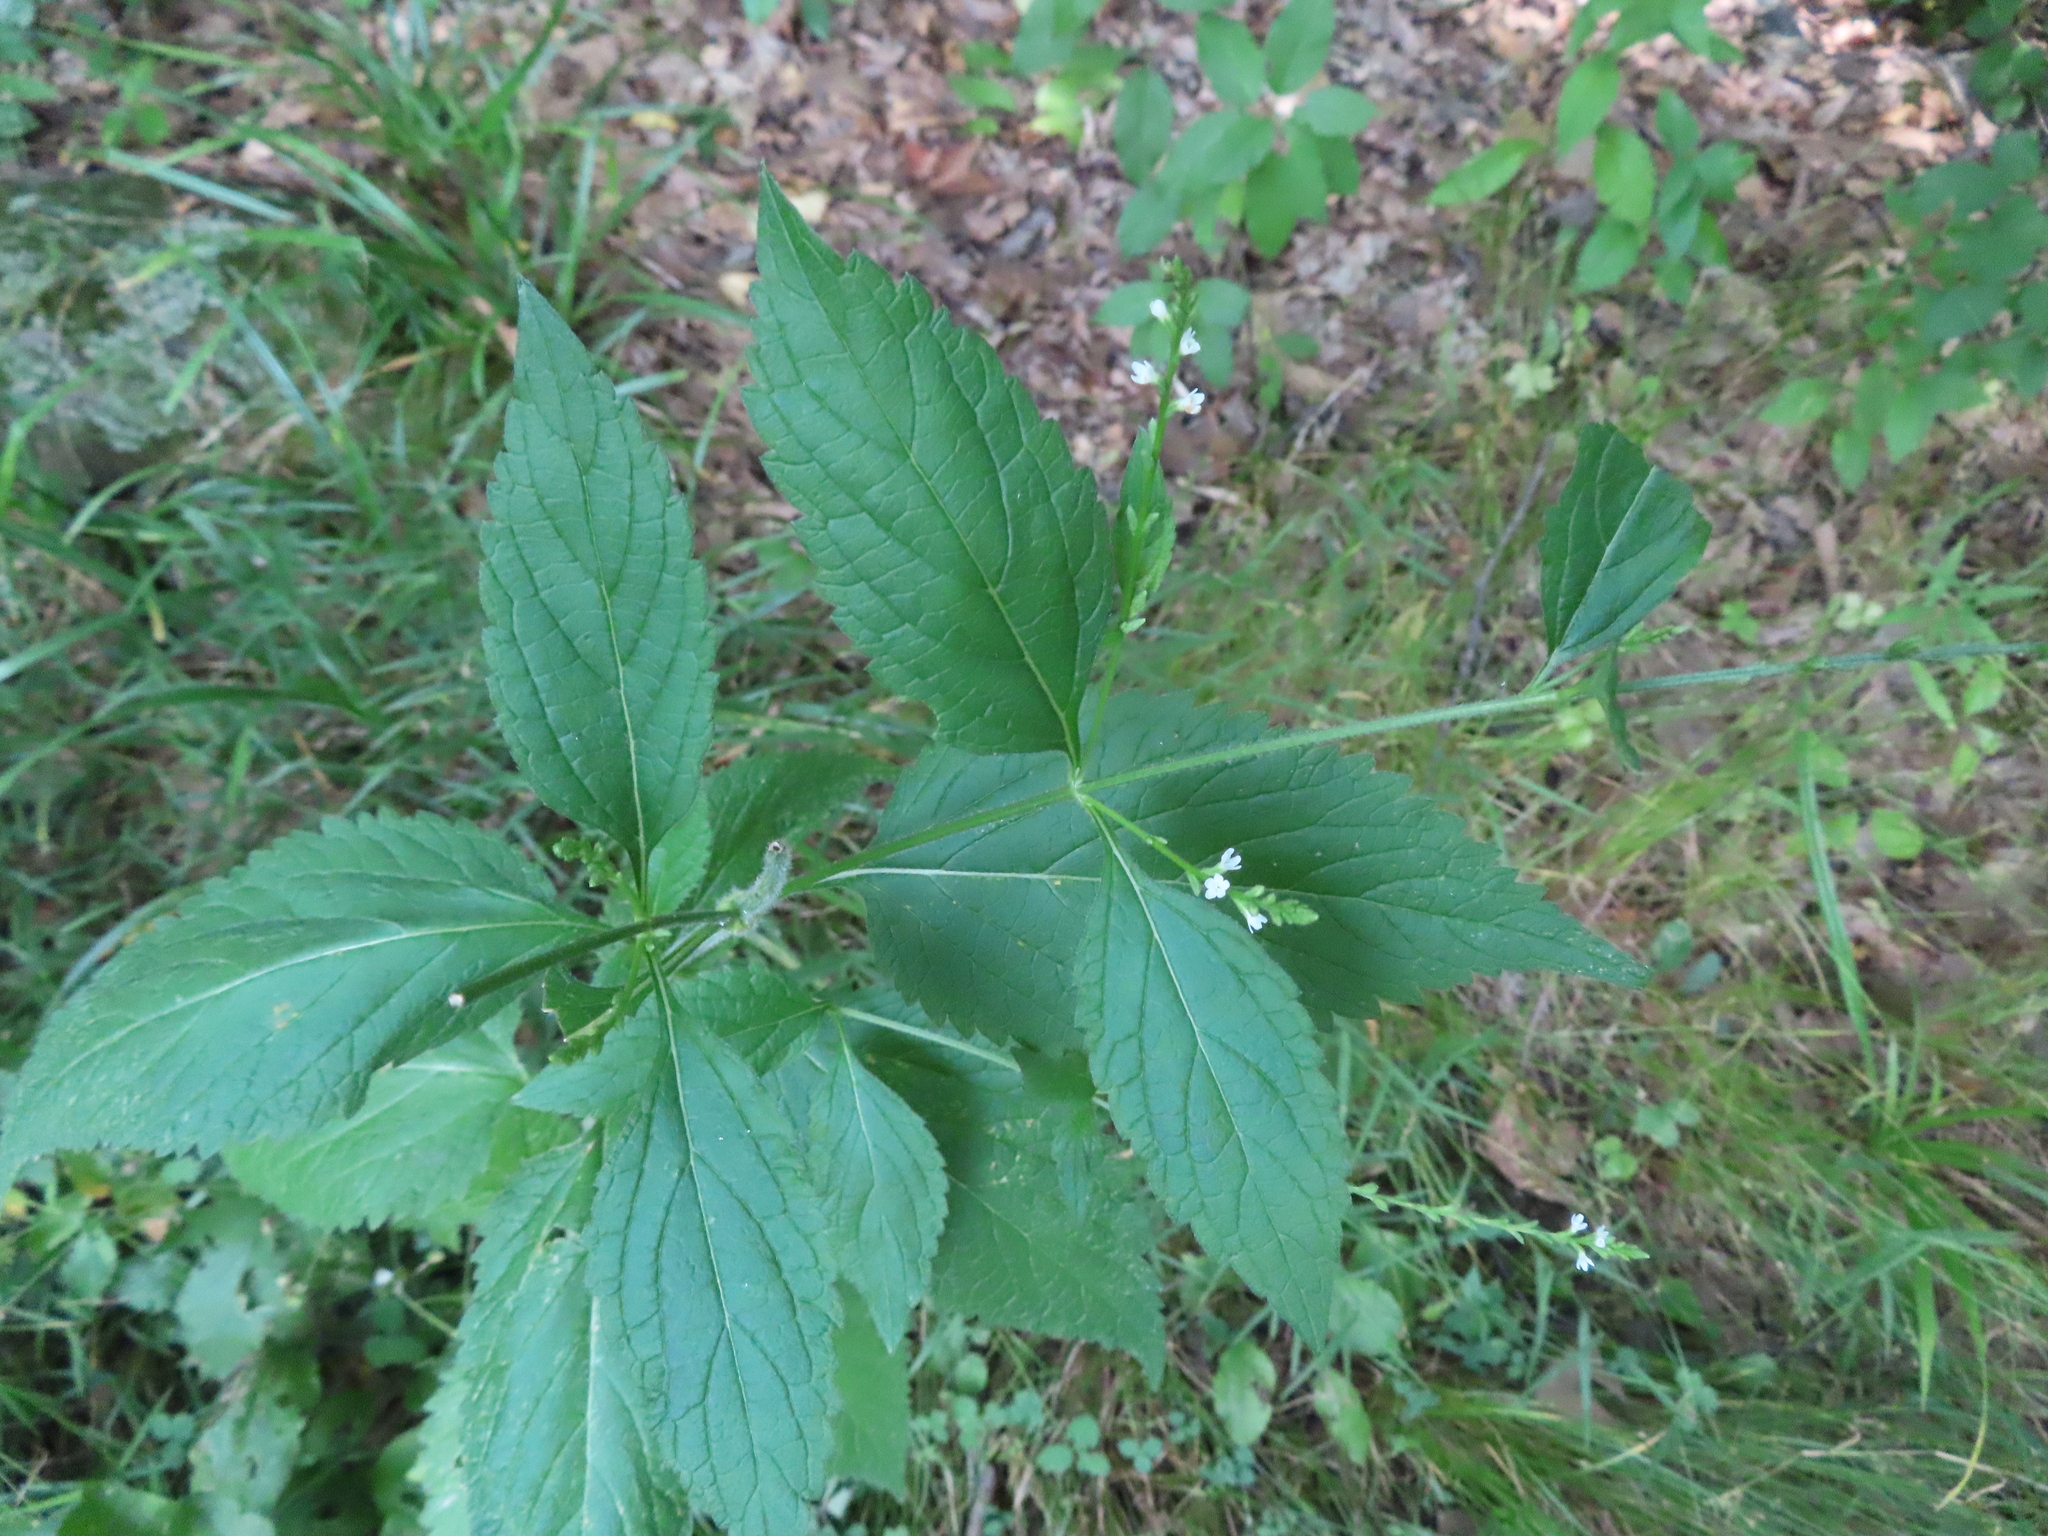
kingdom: Plantae
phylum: Tracheophyta
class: Magnoliopsida
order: Lamiales
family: Verbenaceae
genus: Verbena
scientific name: Verbena urticifolia
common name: Nettle-leaved vervain
